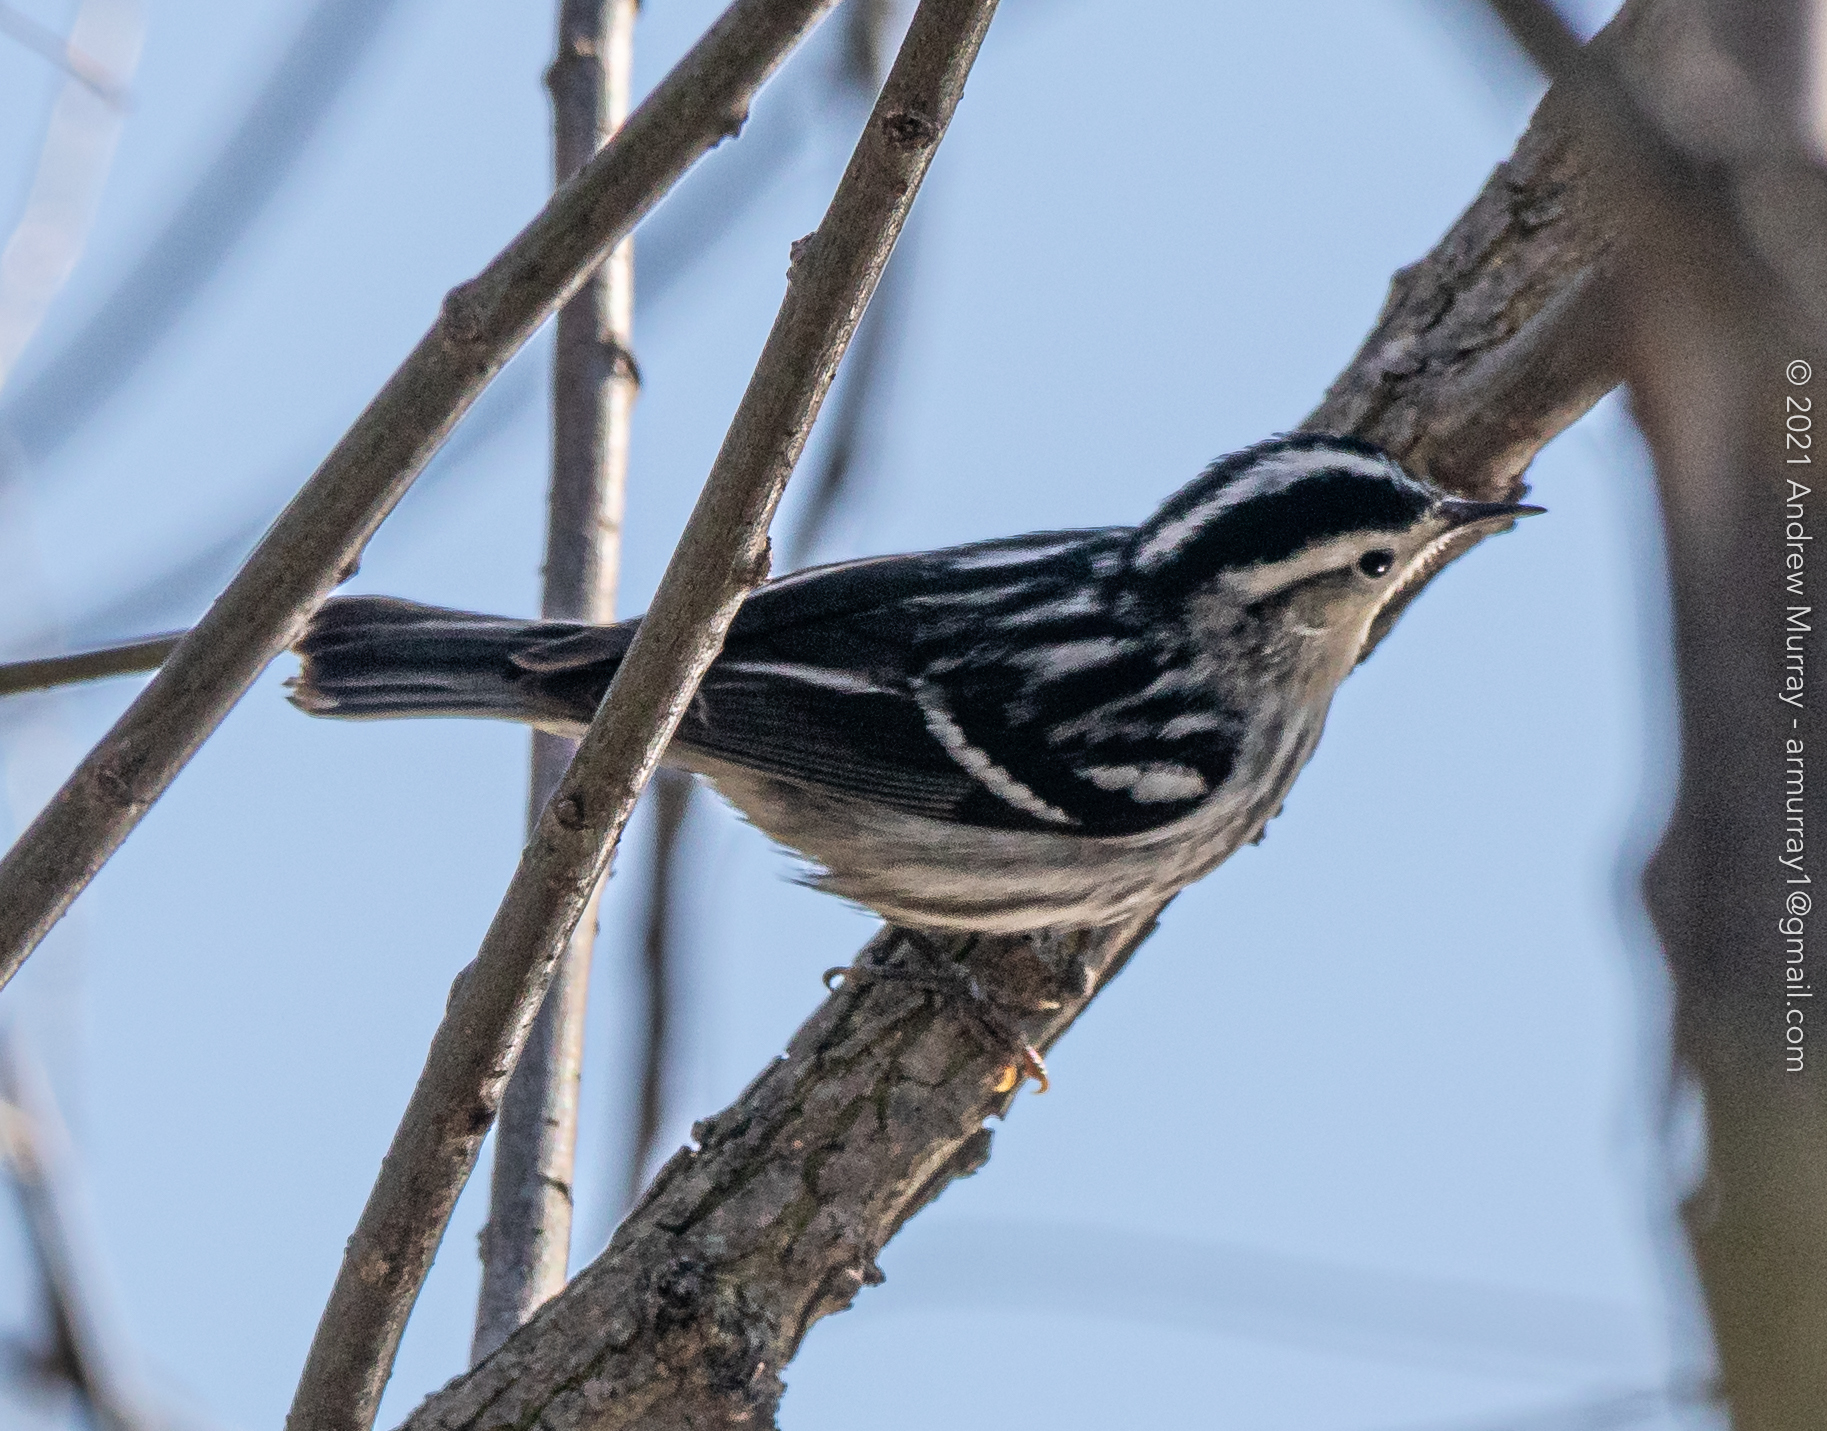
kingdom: Animalia
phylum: Chordata
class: Aves
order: Passeriformes
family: Parulidae
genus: Mniotilta
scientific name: Mniotilta varia
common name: Black-and-white warbler
